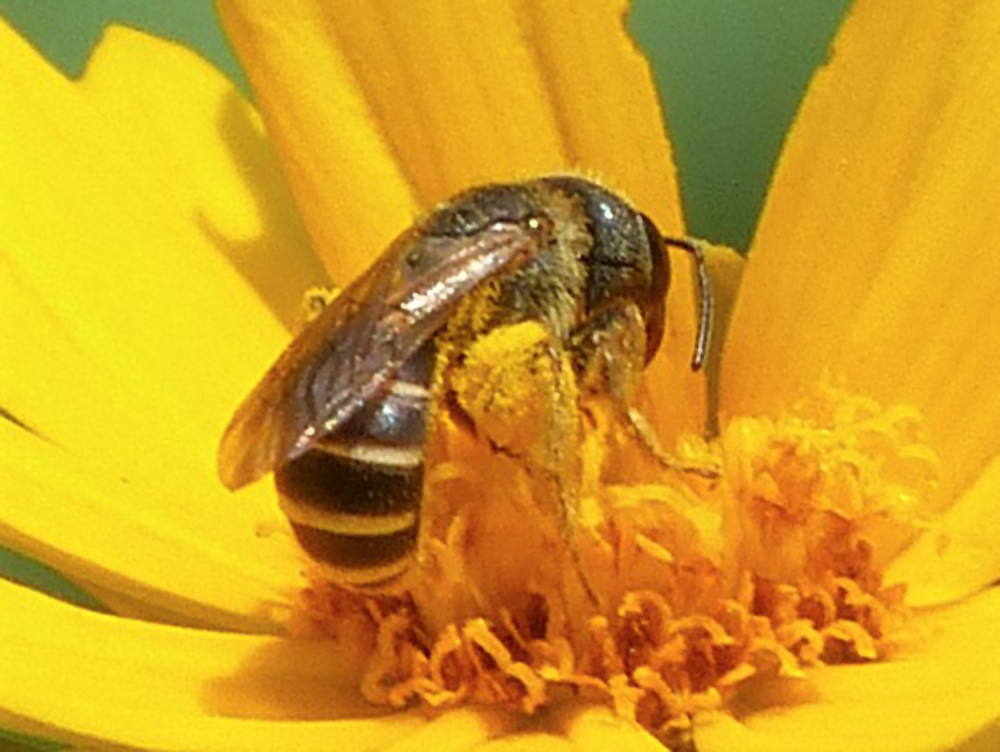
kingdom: Animalia
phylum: Arthropoda
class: Insecta
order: Hymenoptera
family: Halictidae
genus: Halictus
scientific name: Halictus ligatus
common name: Ligated furrow bee
